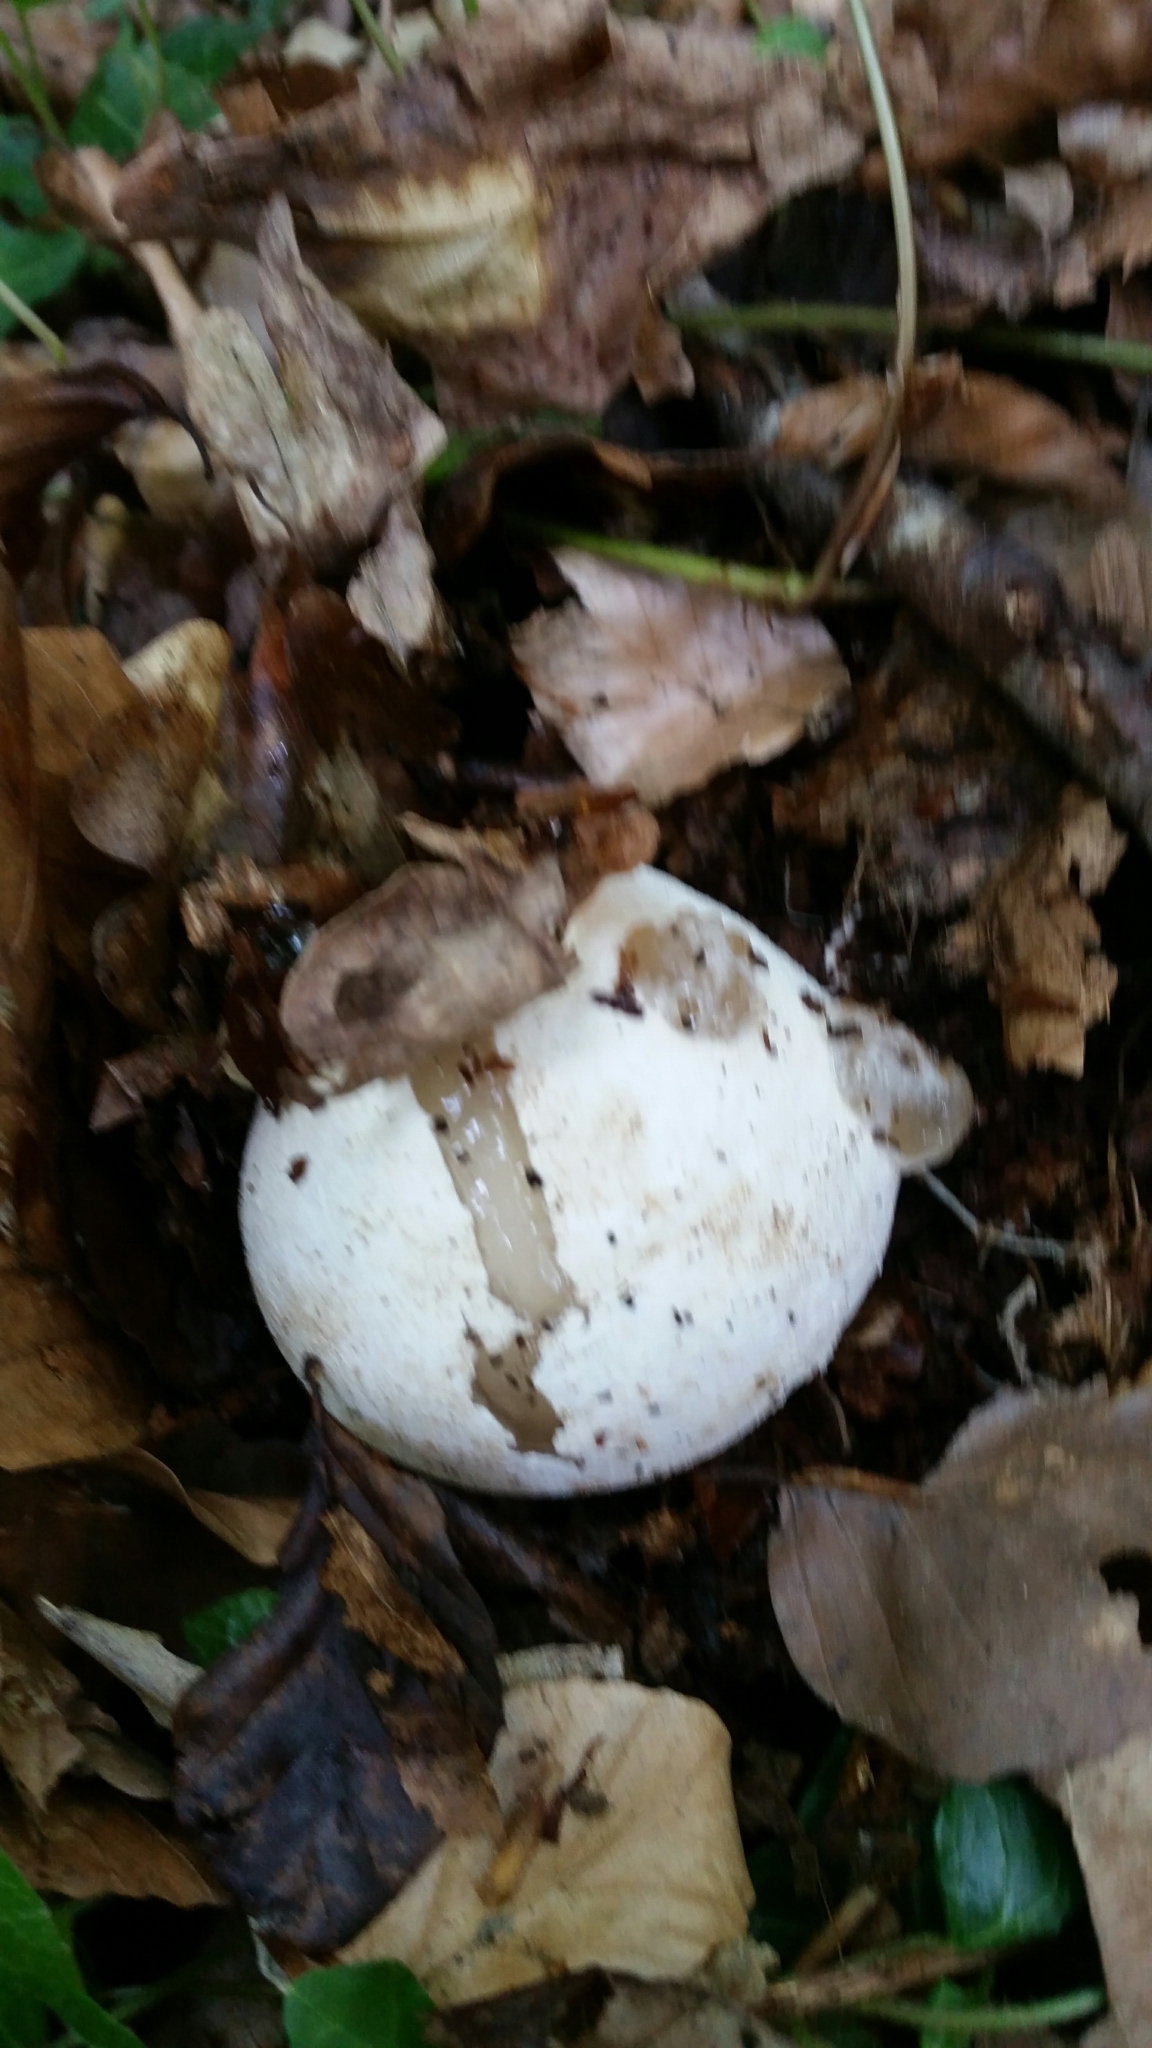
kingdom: Fungi
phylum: Basidiomycota
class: Agaricomycetes
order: Phallales
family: Phallaceae
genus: Phallus
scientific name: Phallus impudicus
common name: Common stinkhorn
